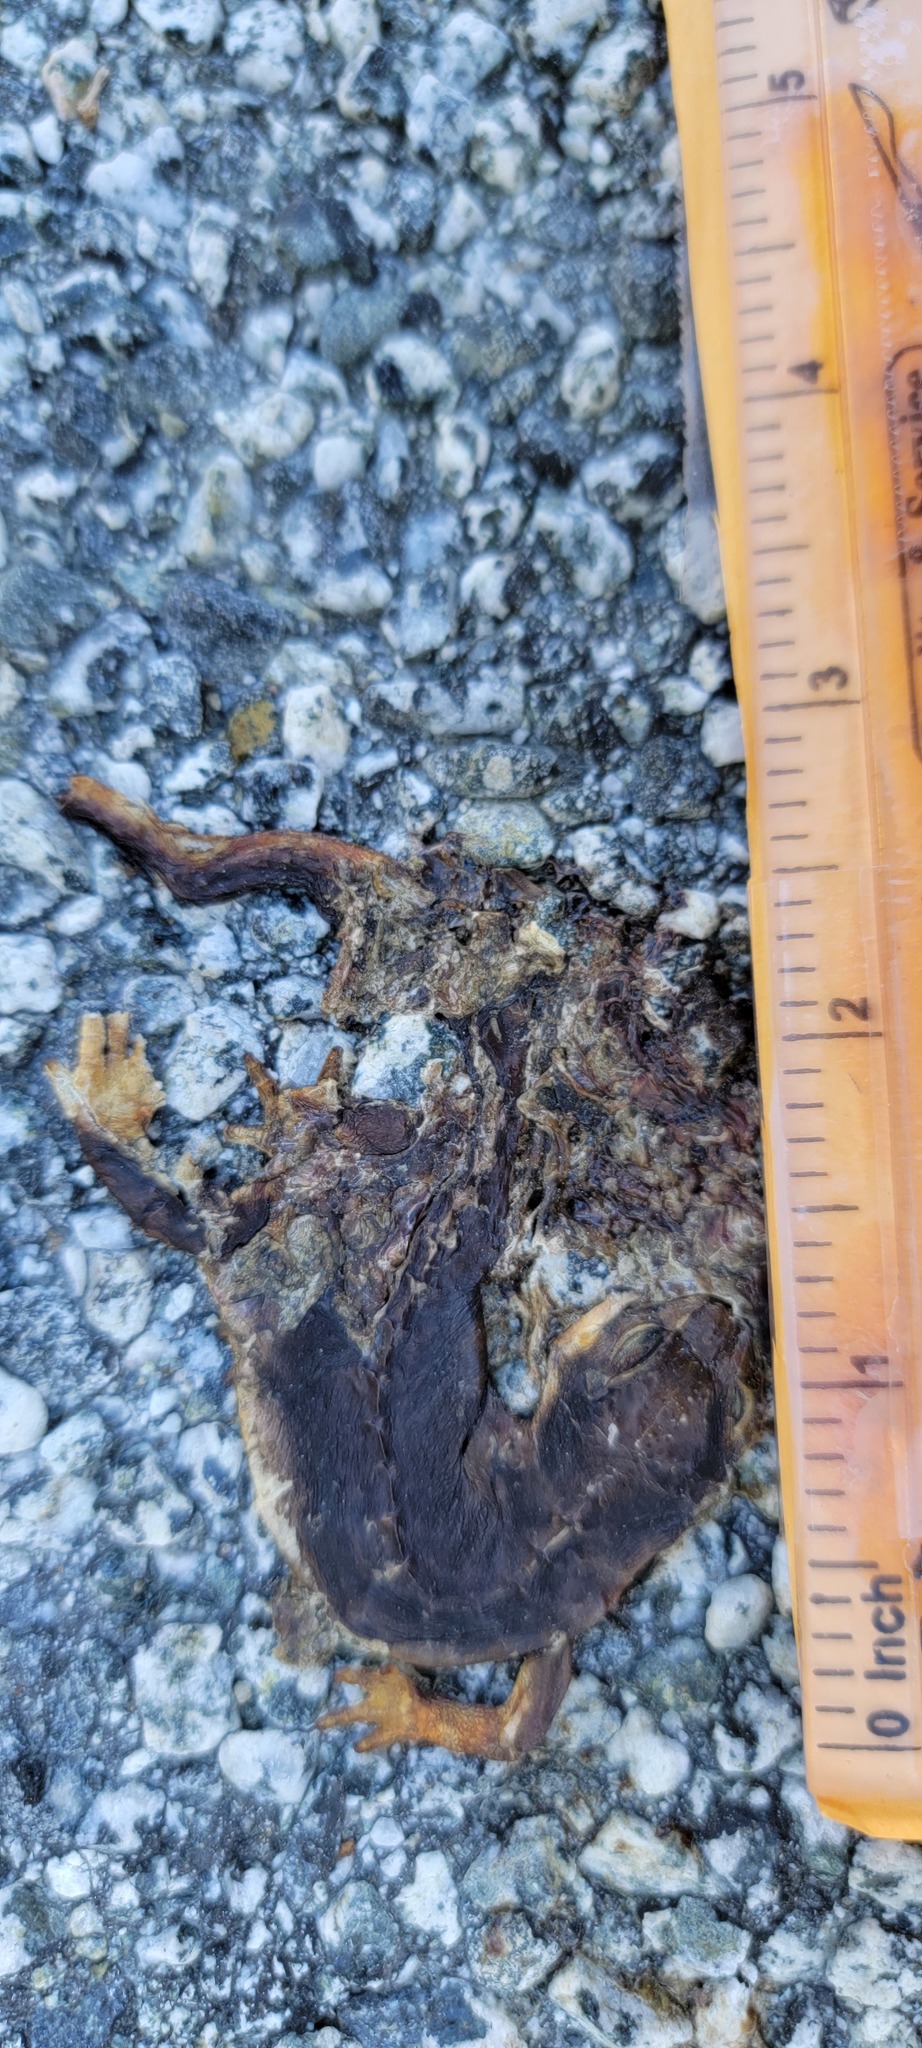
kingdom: Animalia
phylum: Chordata
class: Amphibia
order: Caudata
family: Salamandridae
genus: Taricha
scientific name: Taricha
